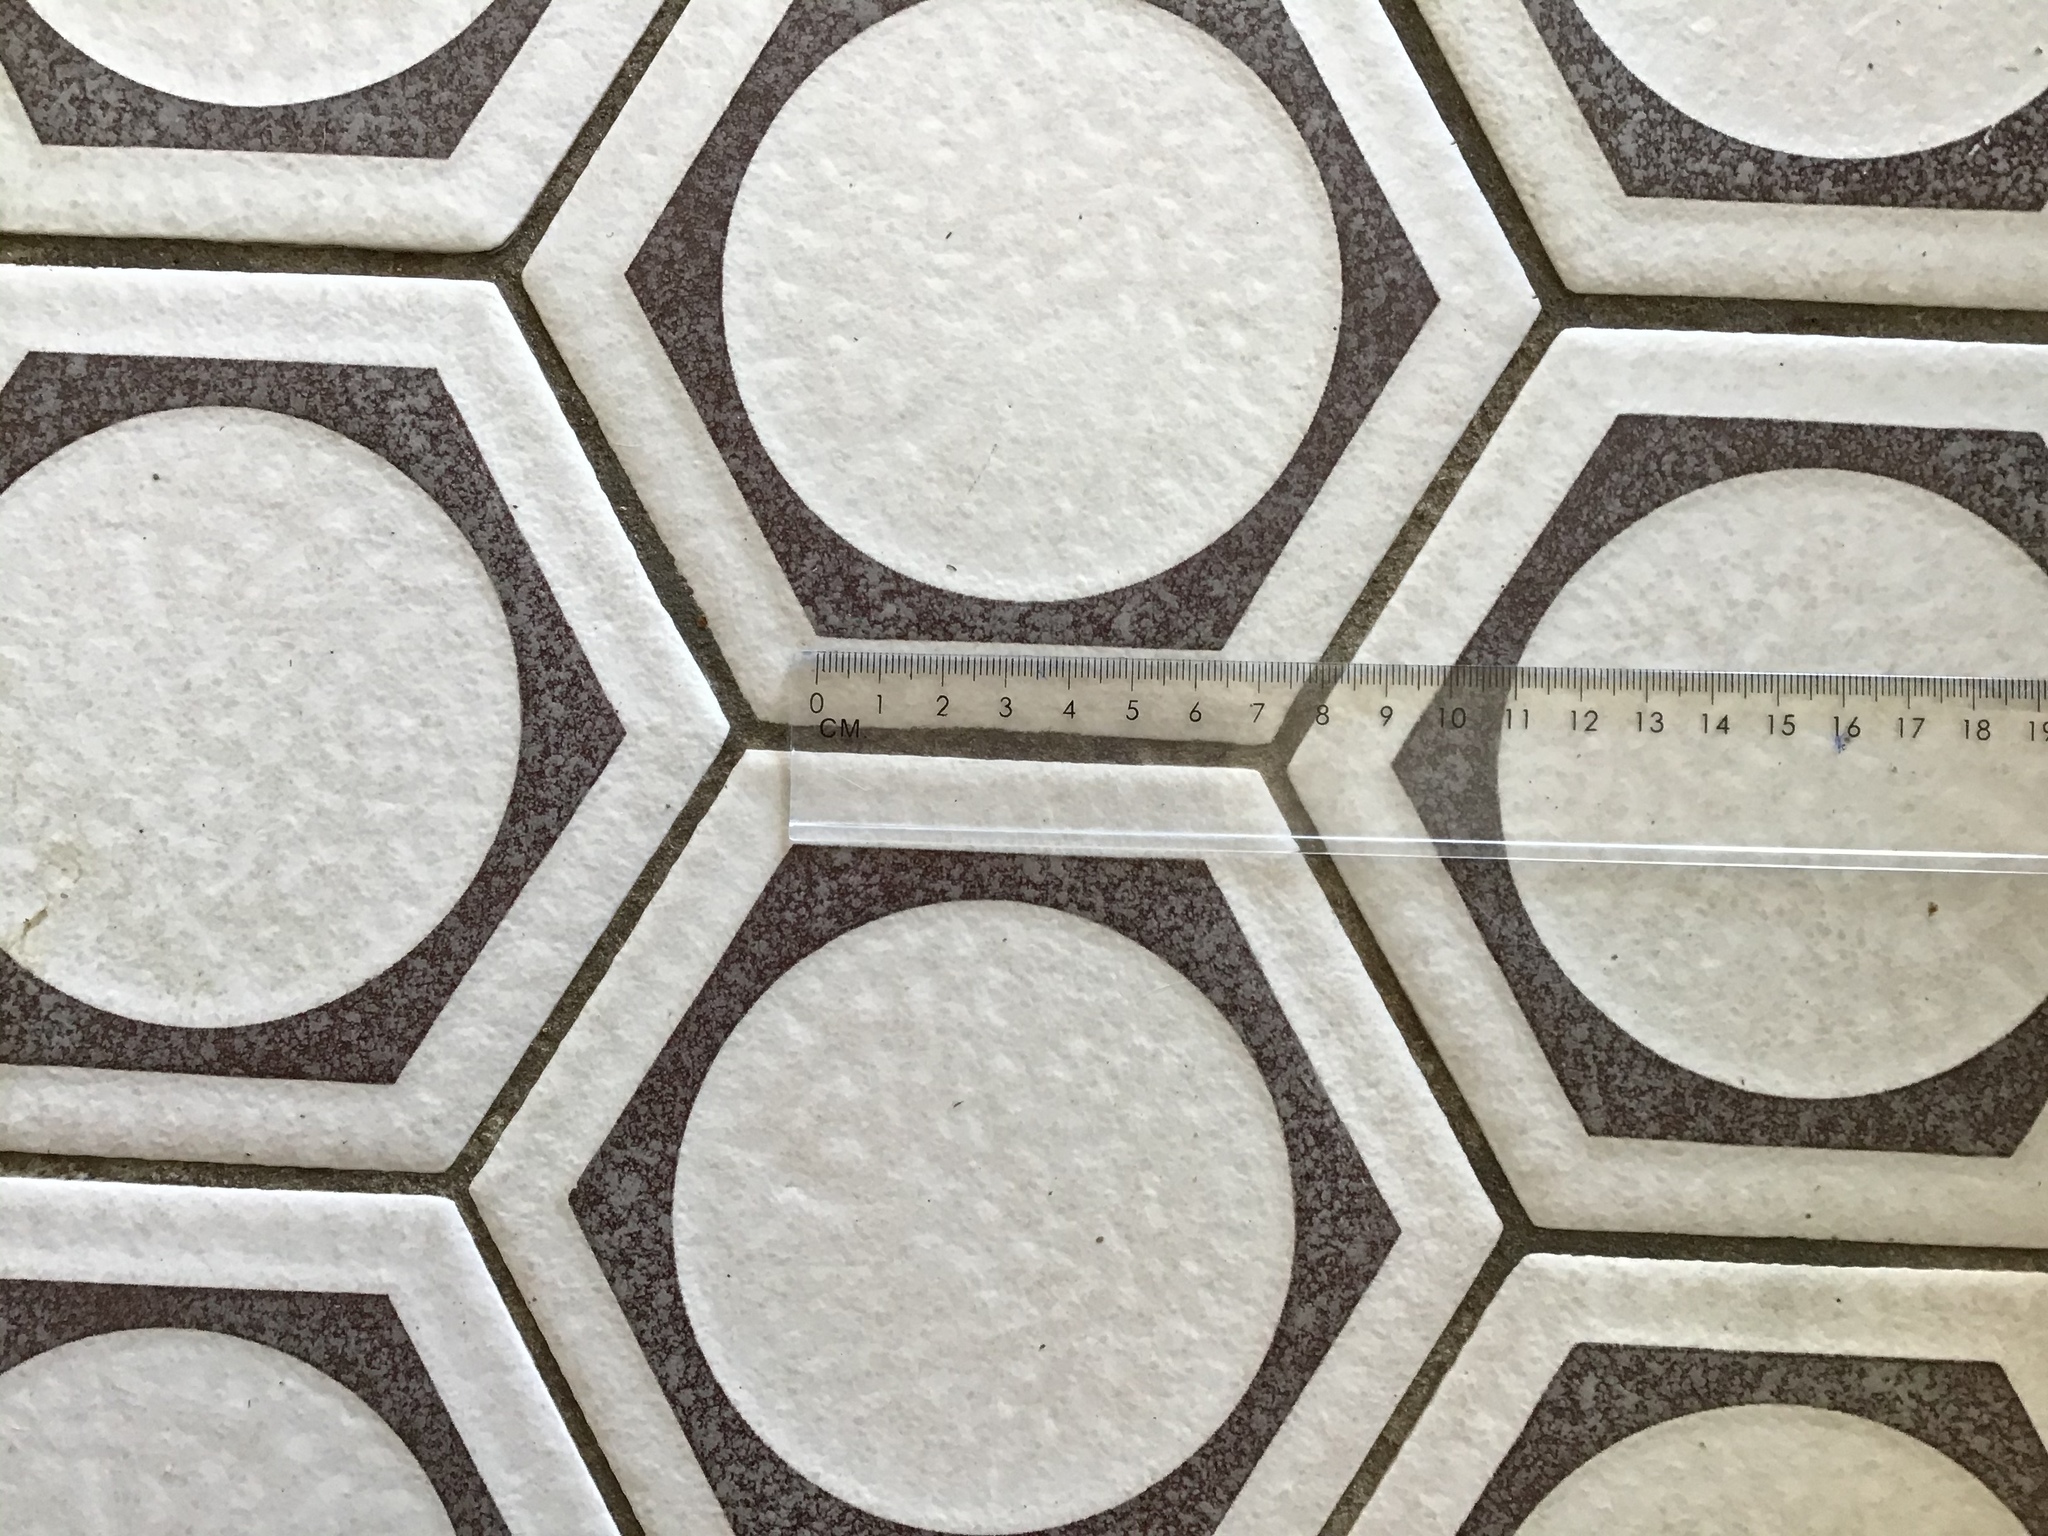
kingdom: Animalia
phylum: Arthropoda
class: Insecta
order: Hymenoptera
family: Vespidae
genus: Vespa
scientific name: Vespa crabro
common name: Hornet
